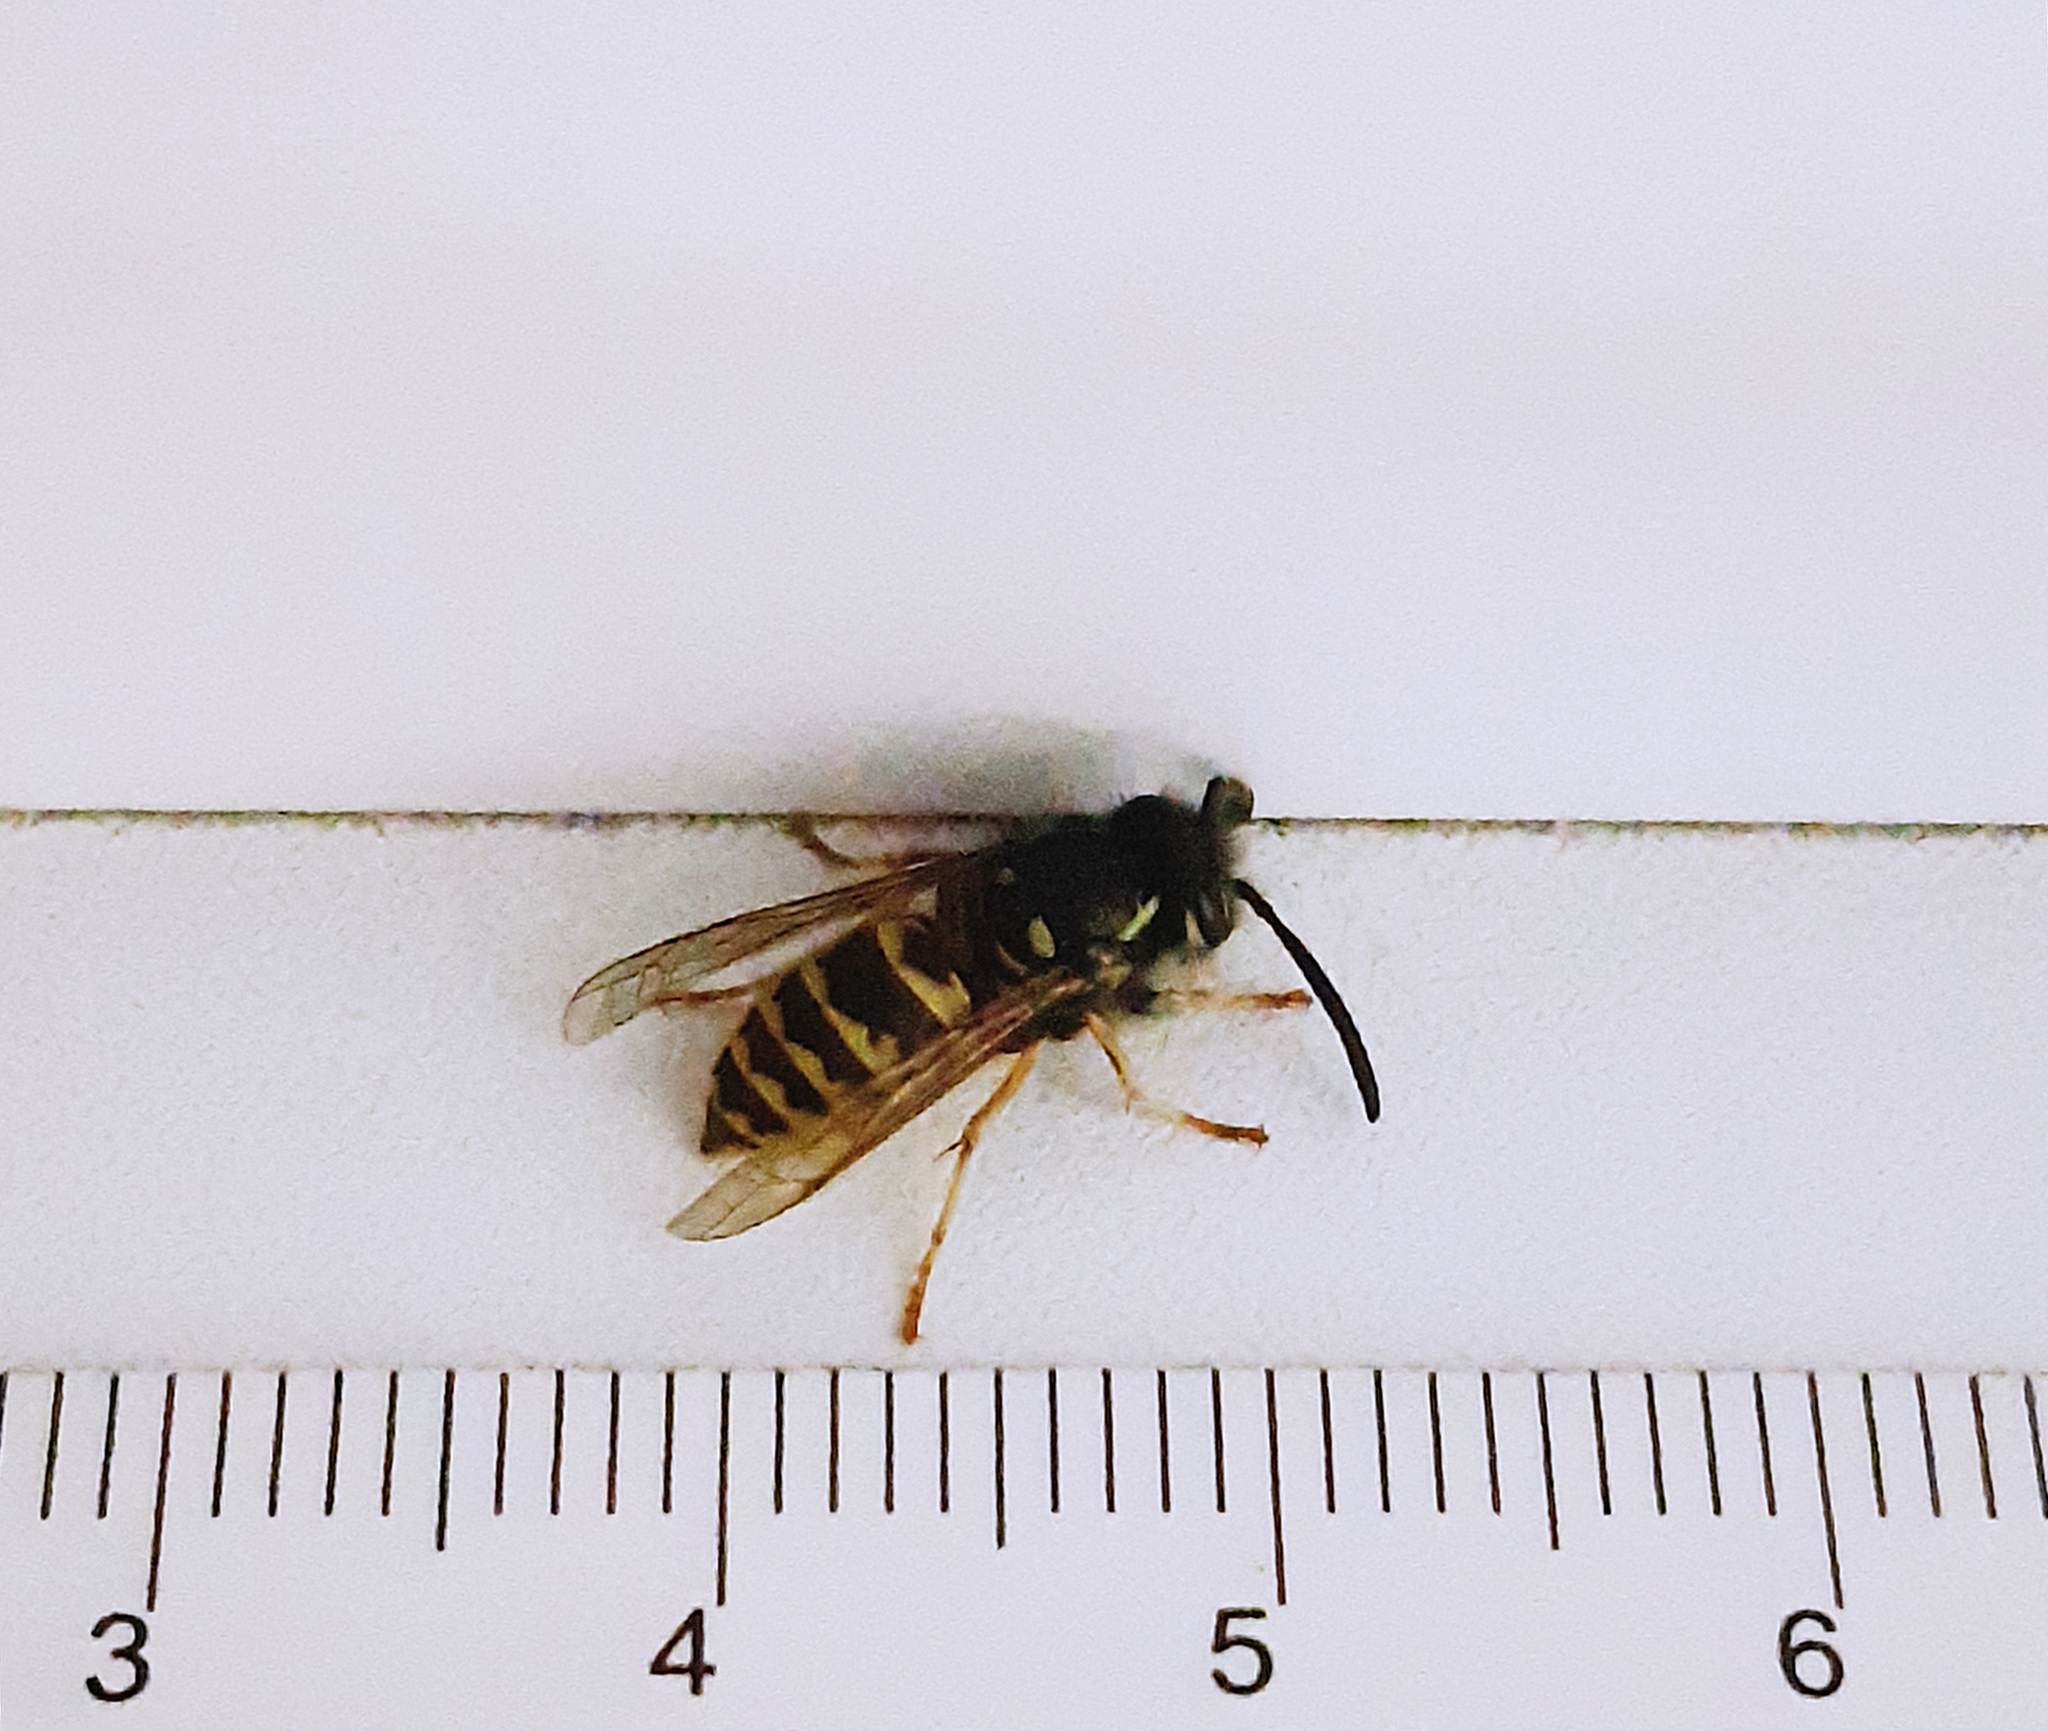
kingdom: Animalia
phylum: Arthropoda
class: Insecta
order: Hymenoptera
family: Vespidae
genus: Vespula
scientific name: Vespula vulgaris
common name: Common wasp
